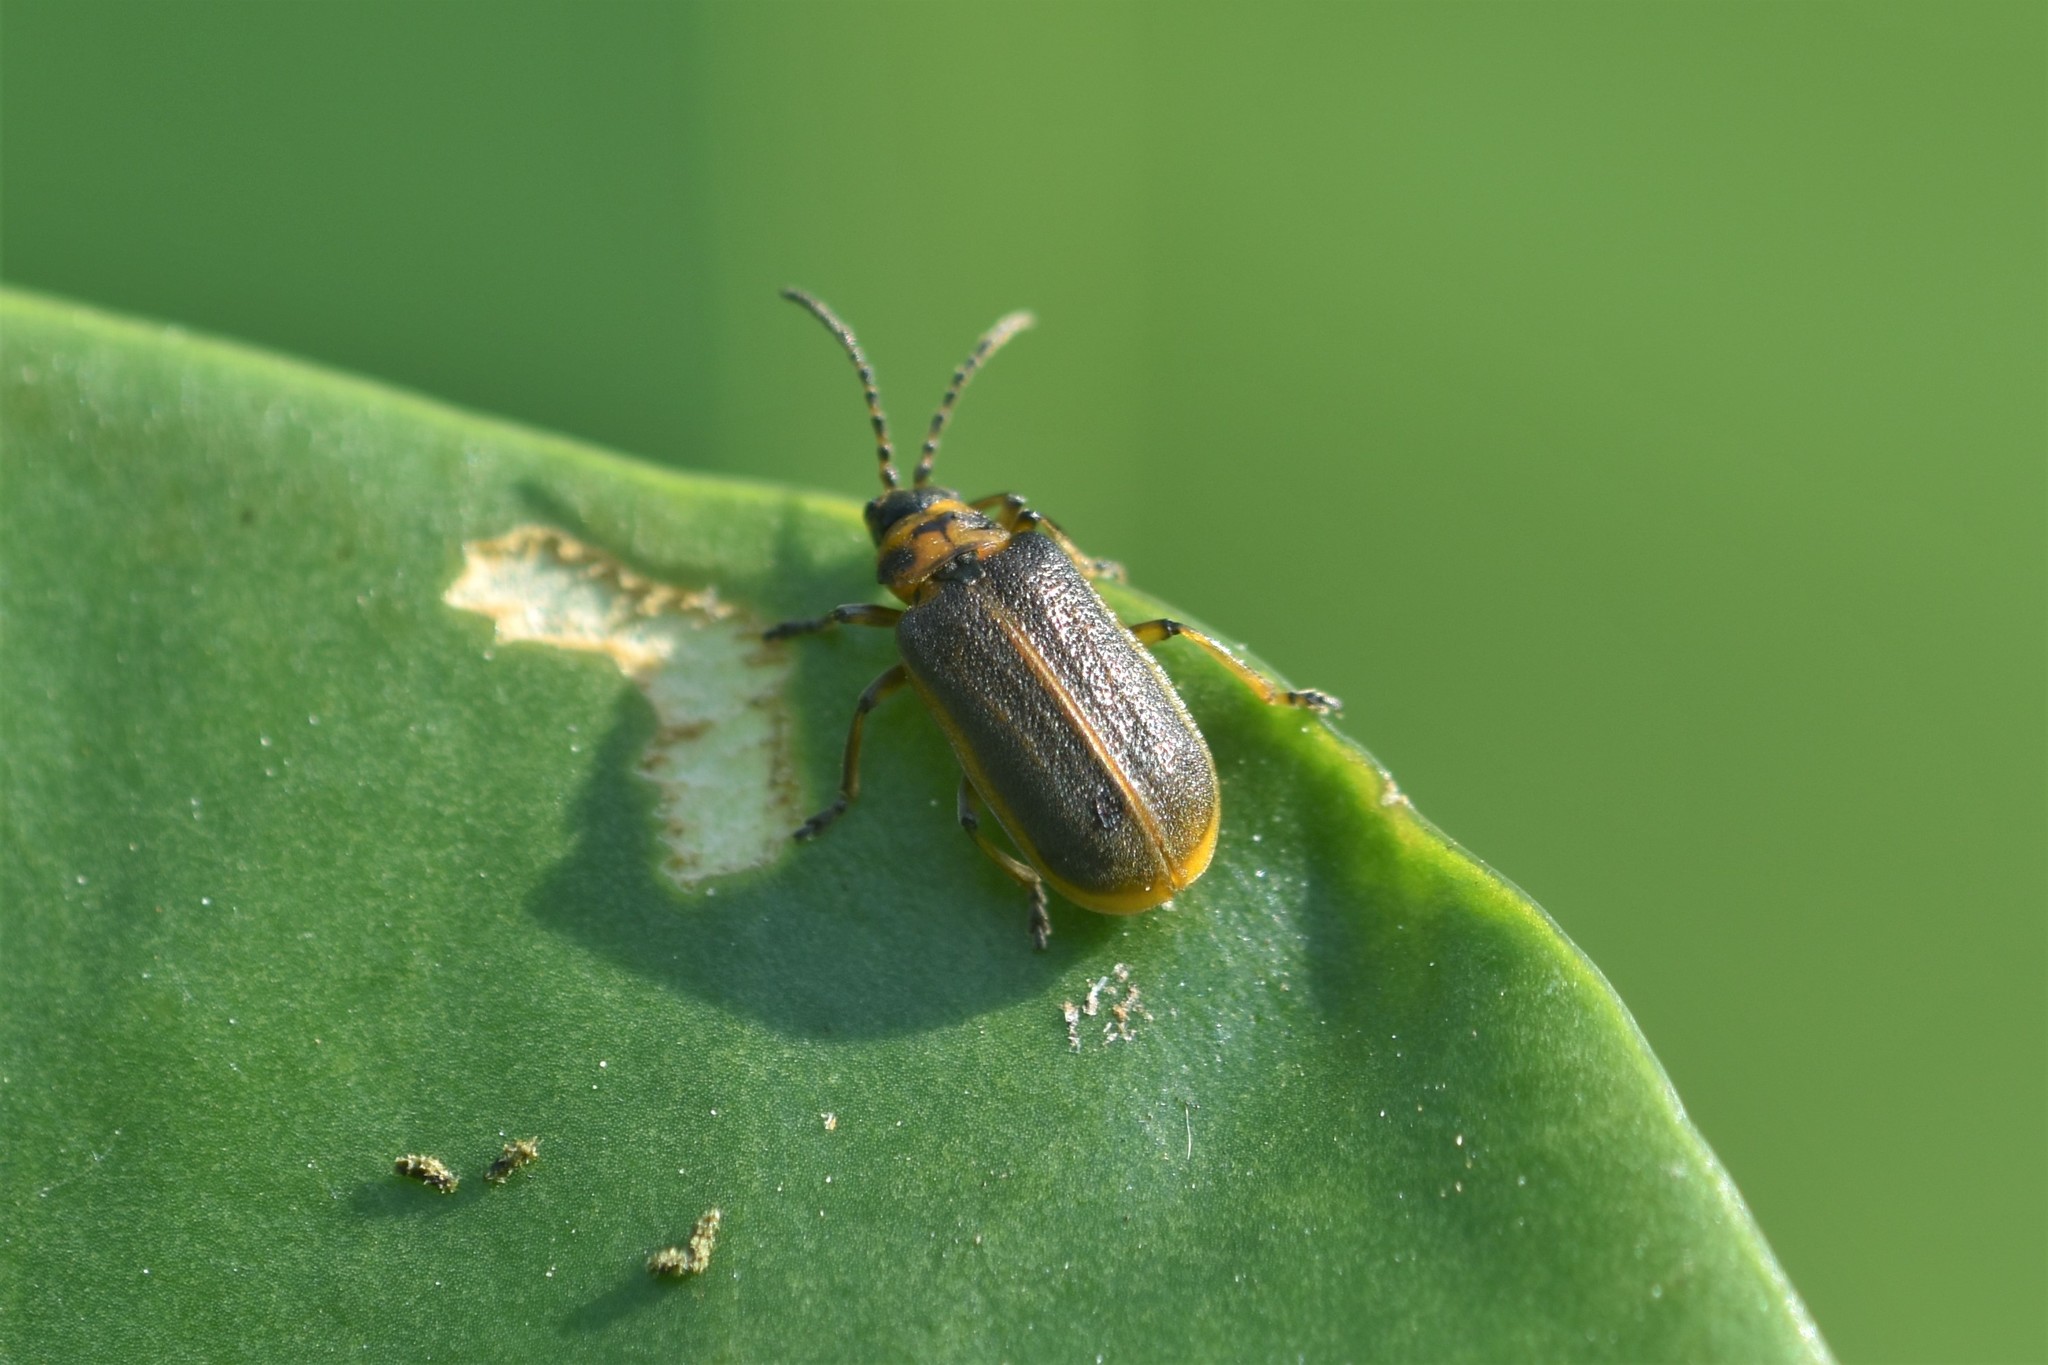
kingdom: Animalia
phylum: Arthropoda
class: Insecta
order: Coleoptera
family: Chrysomelidae
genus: Galerucella
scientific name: Galerucella nymphaeae
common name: Leaf beetle
